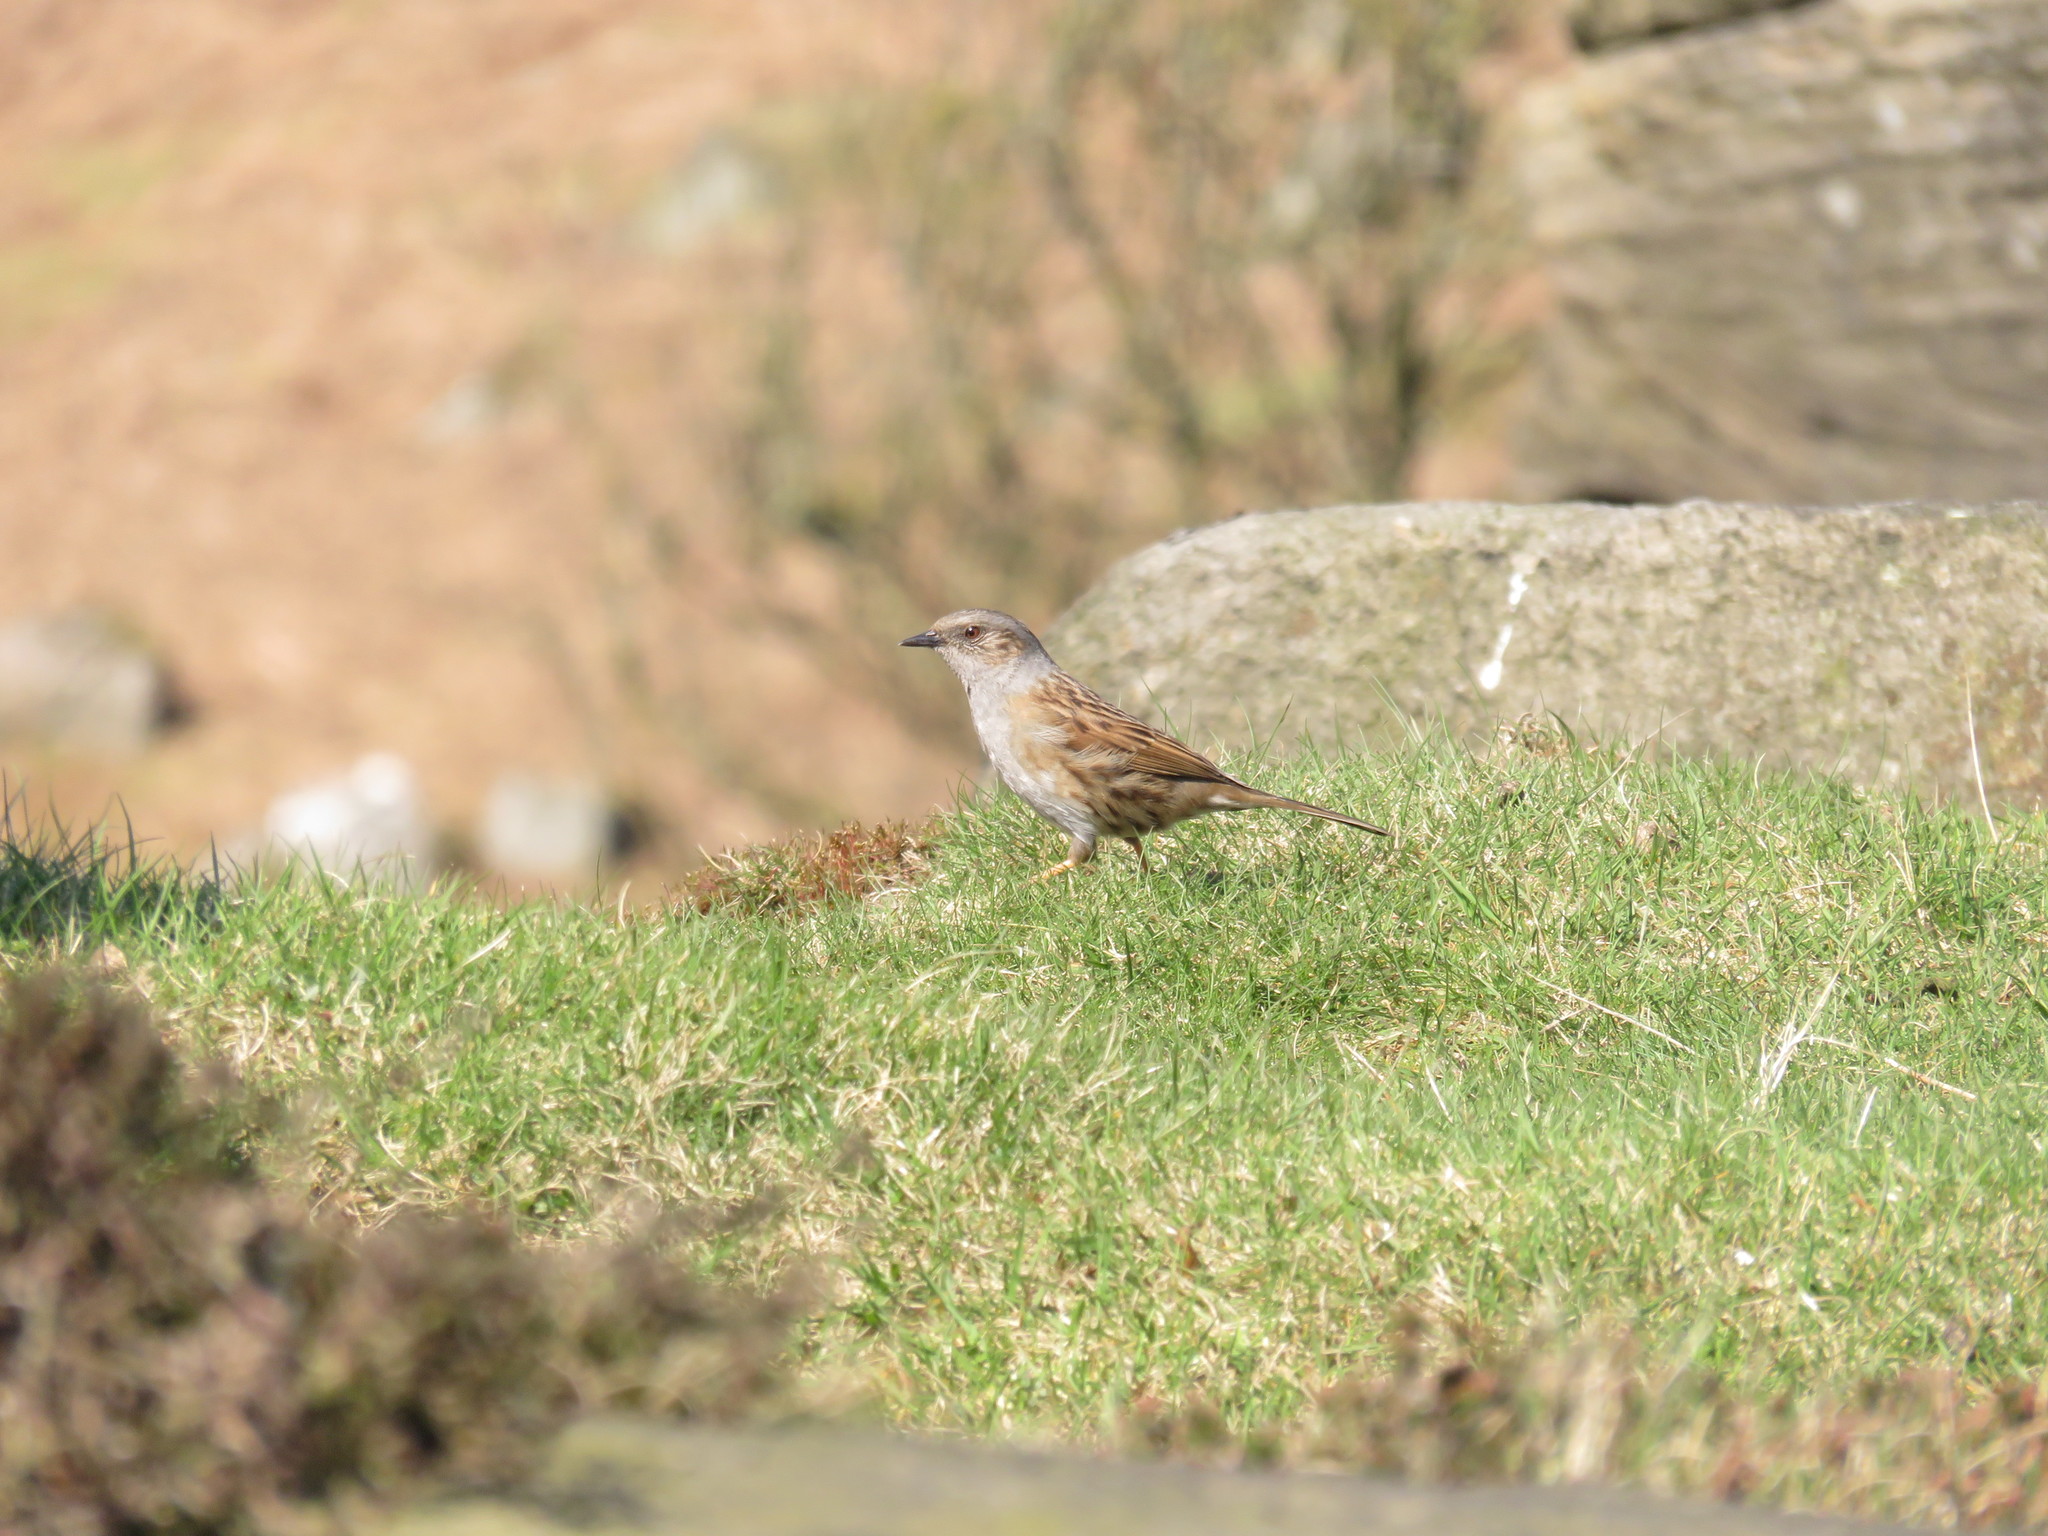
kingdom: Animalia
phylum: Chordata
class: Aves
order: Passeriformes
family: Prunellidae
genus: Prunella
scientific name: Prunella modularis
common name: Dunnock
